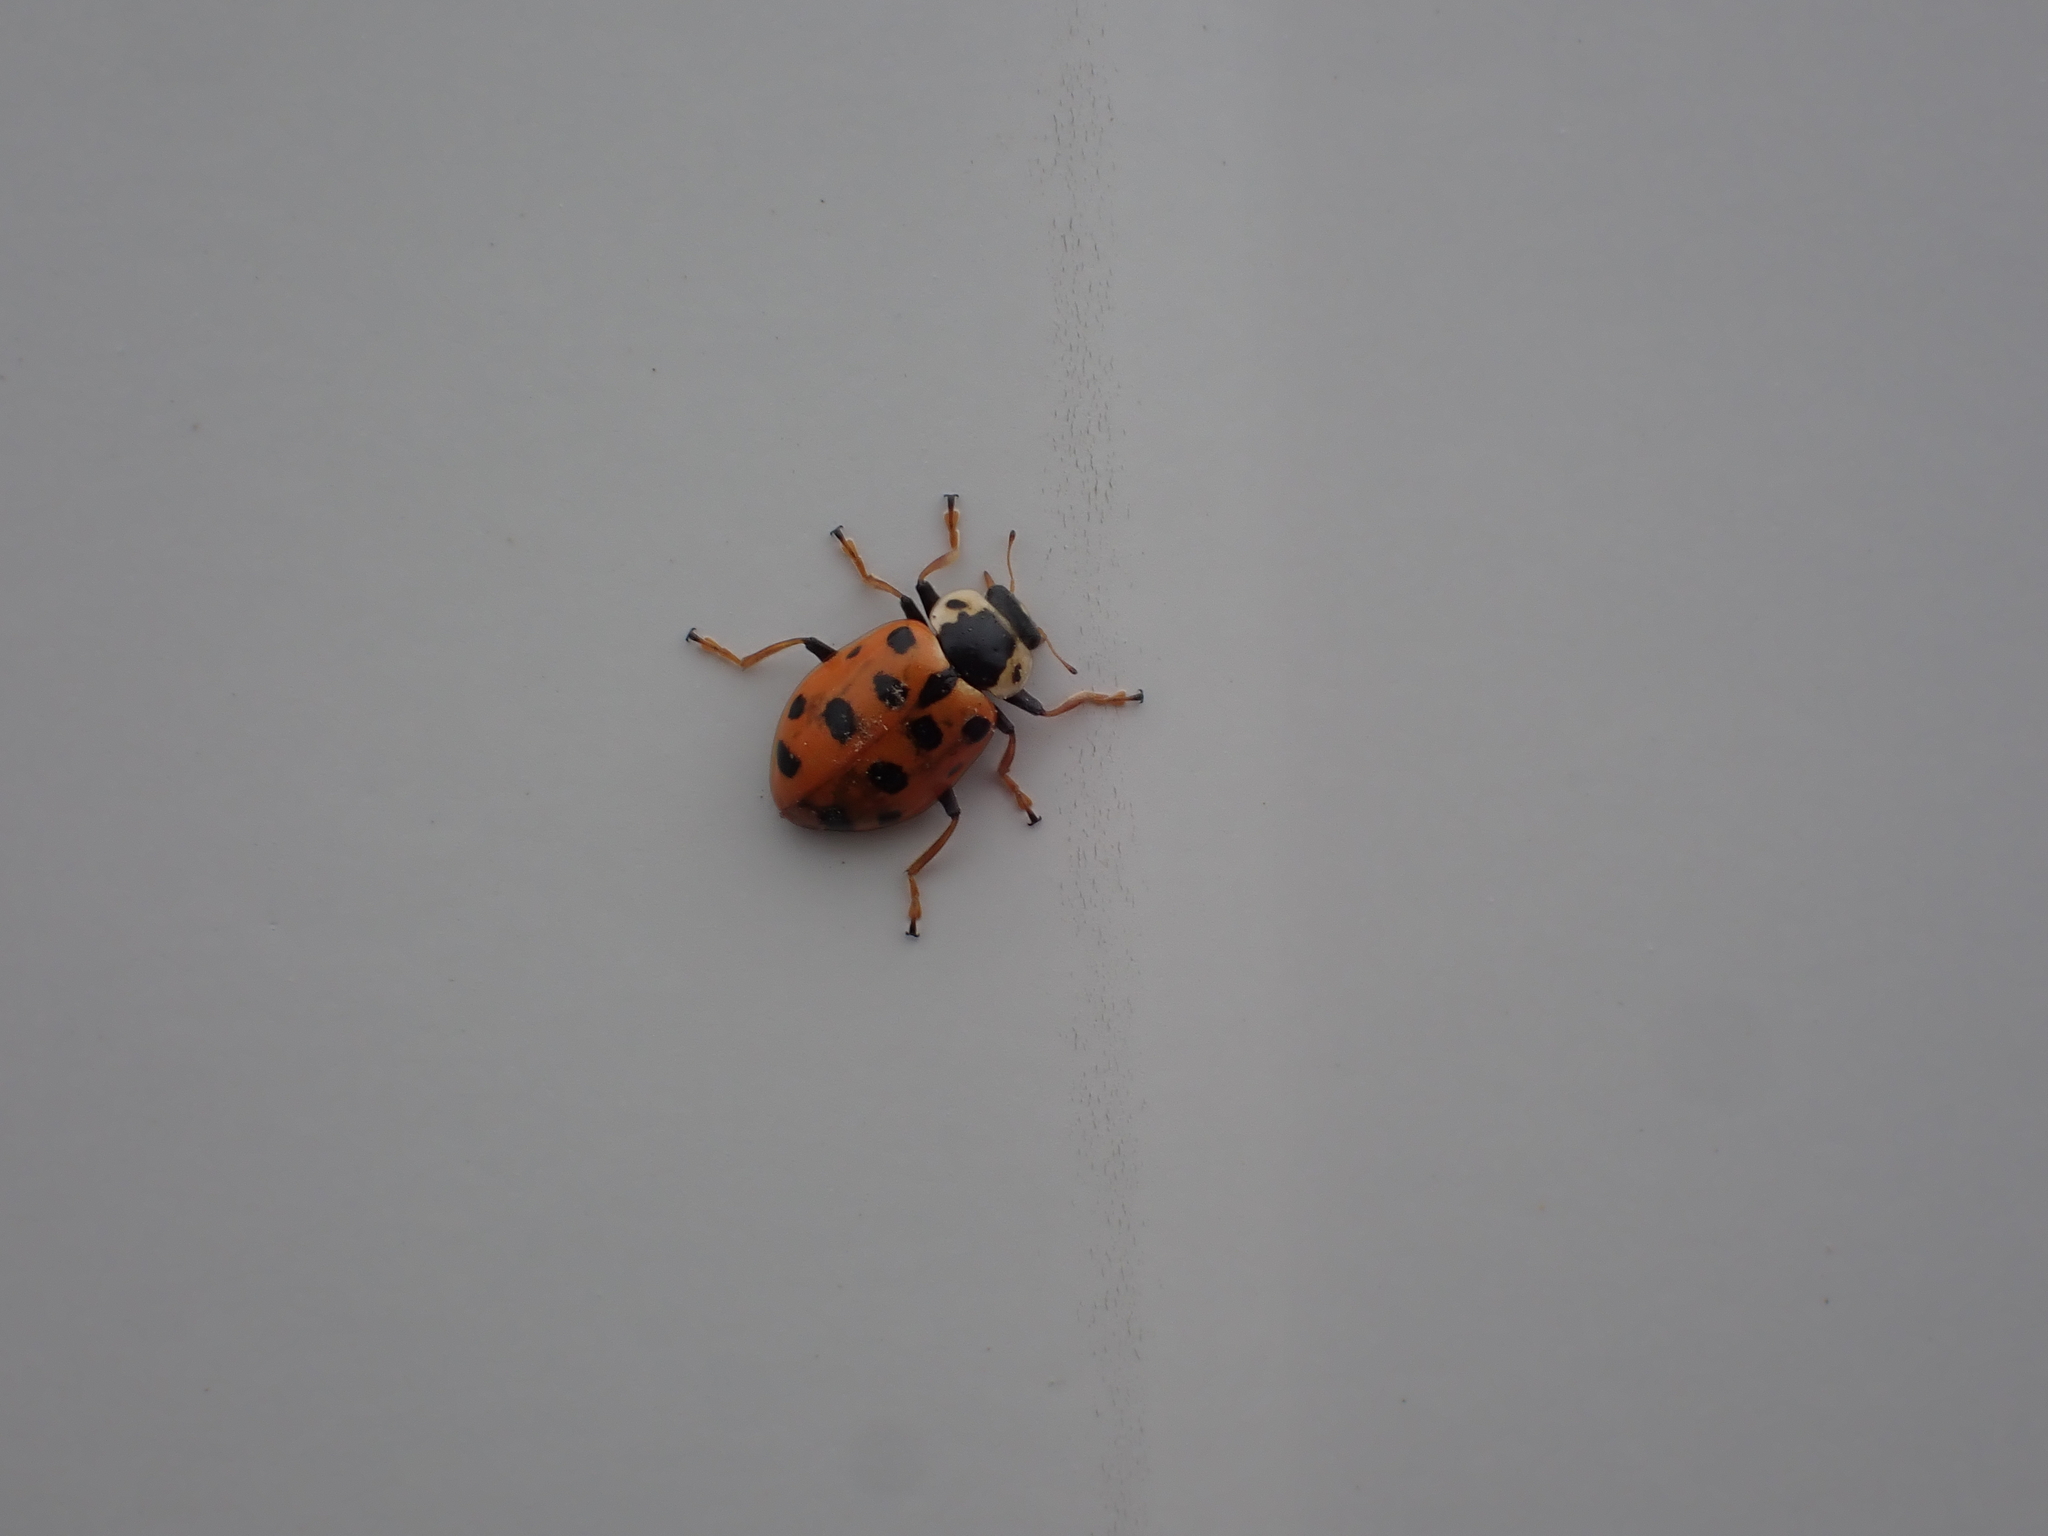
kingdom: Animalia
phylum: Arthropoda
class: Insecta
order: Coleoptera
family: Coccinellidae
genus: Hippodamia
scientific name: Hippodamia tredecimpunctata
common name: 13-spot ladybird
